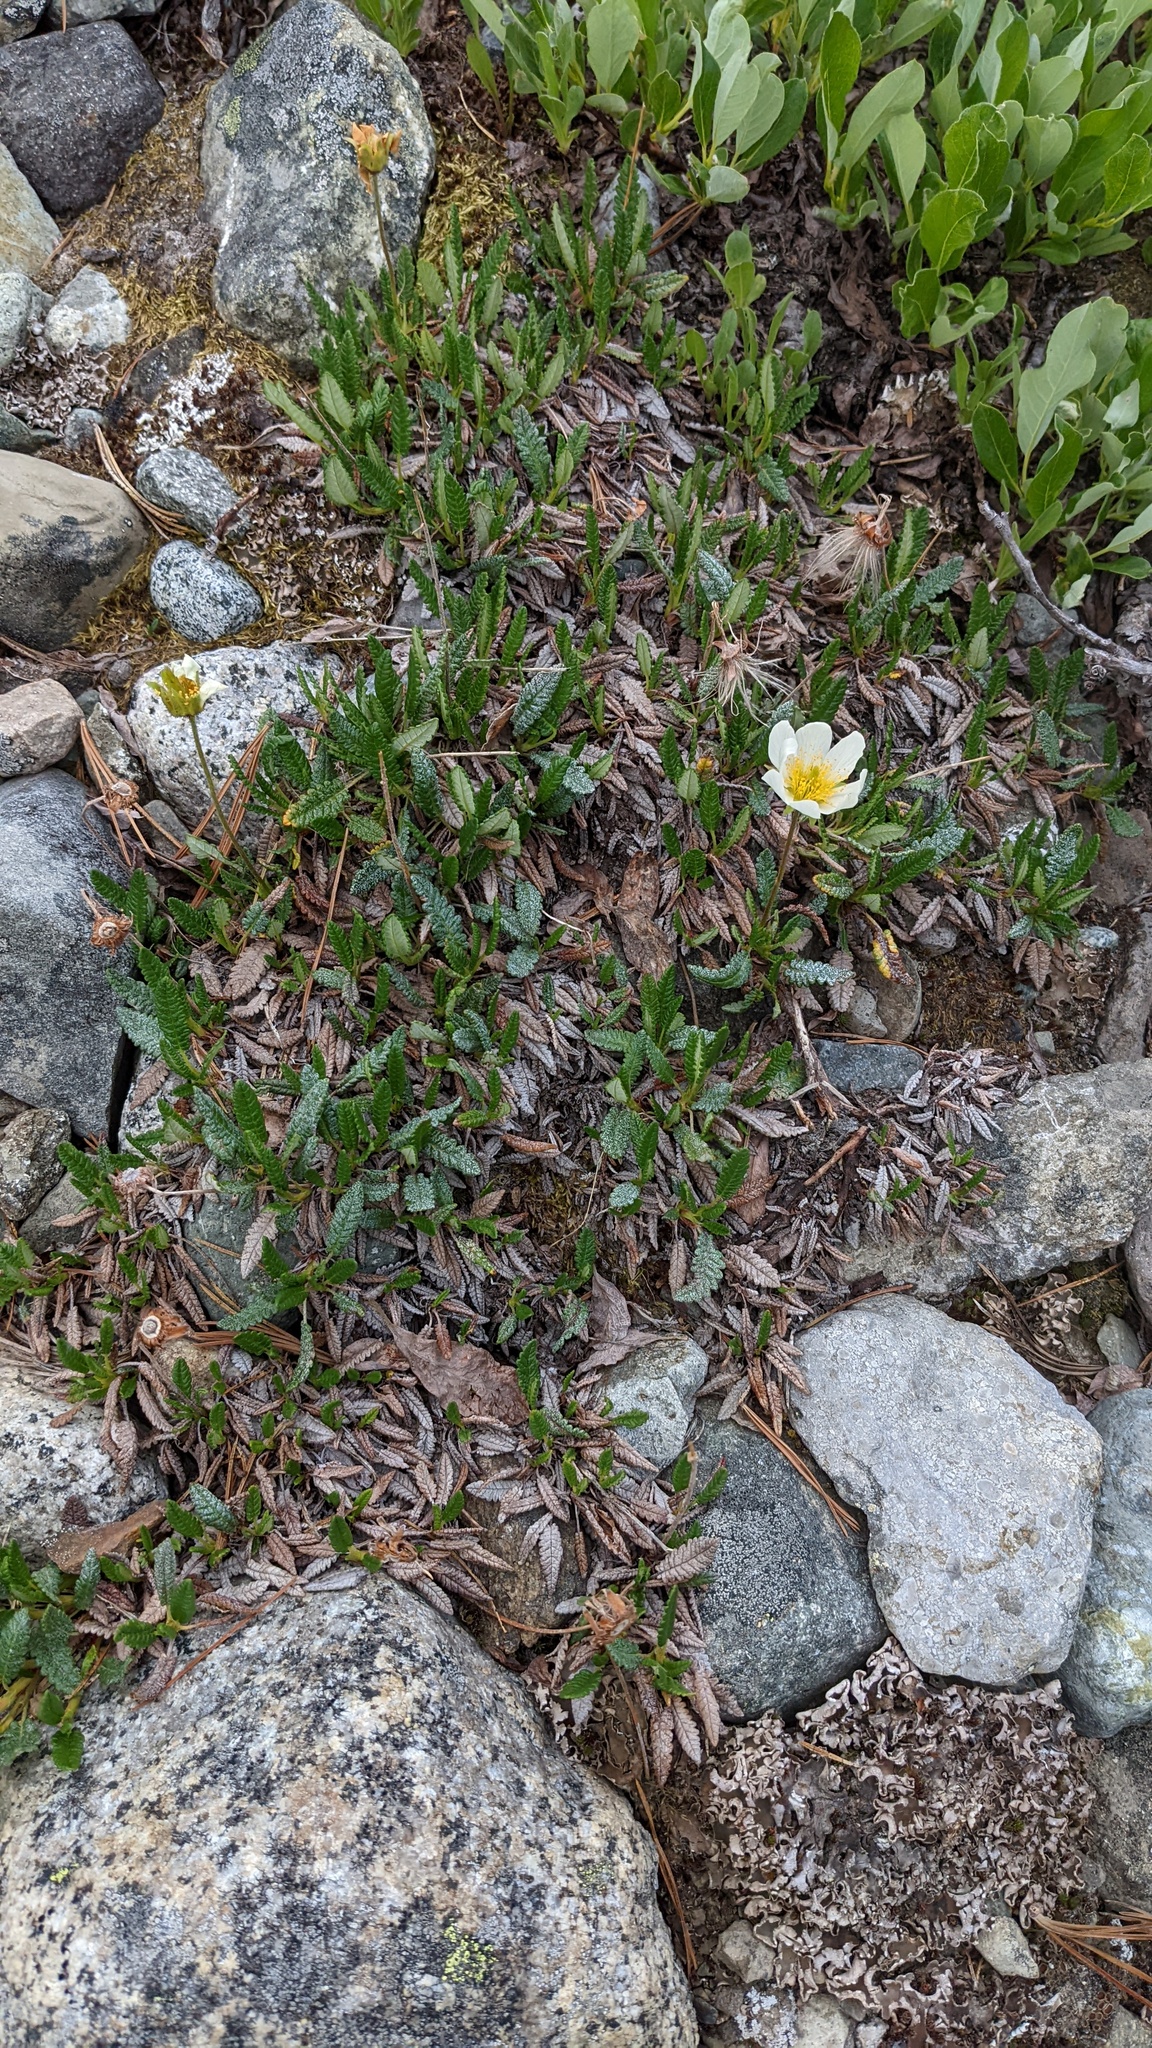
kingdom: Plantae
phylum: Tracheophyta
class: Magnoliopsida
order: Rosales
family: Rosaceae
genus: Dryas
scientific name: Dryas octopetala
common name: Eight-petal mountain-avens
